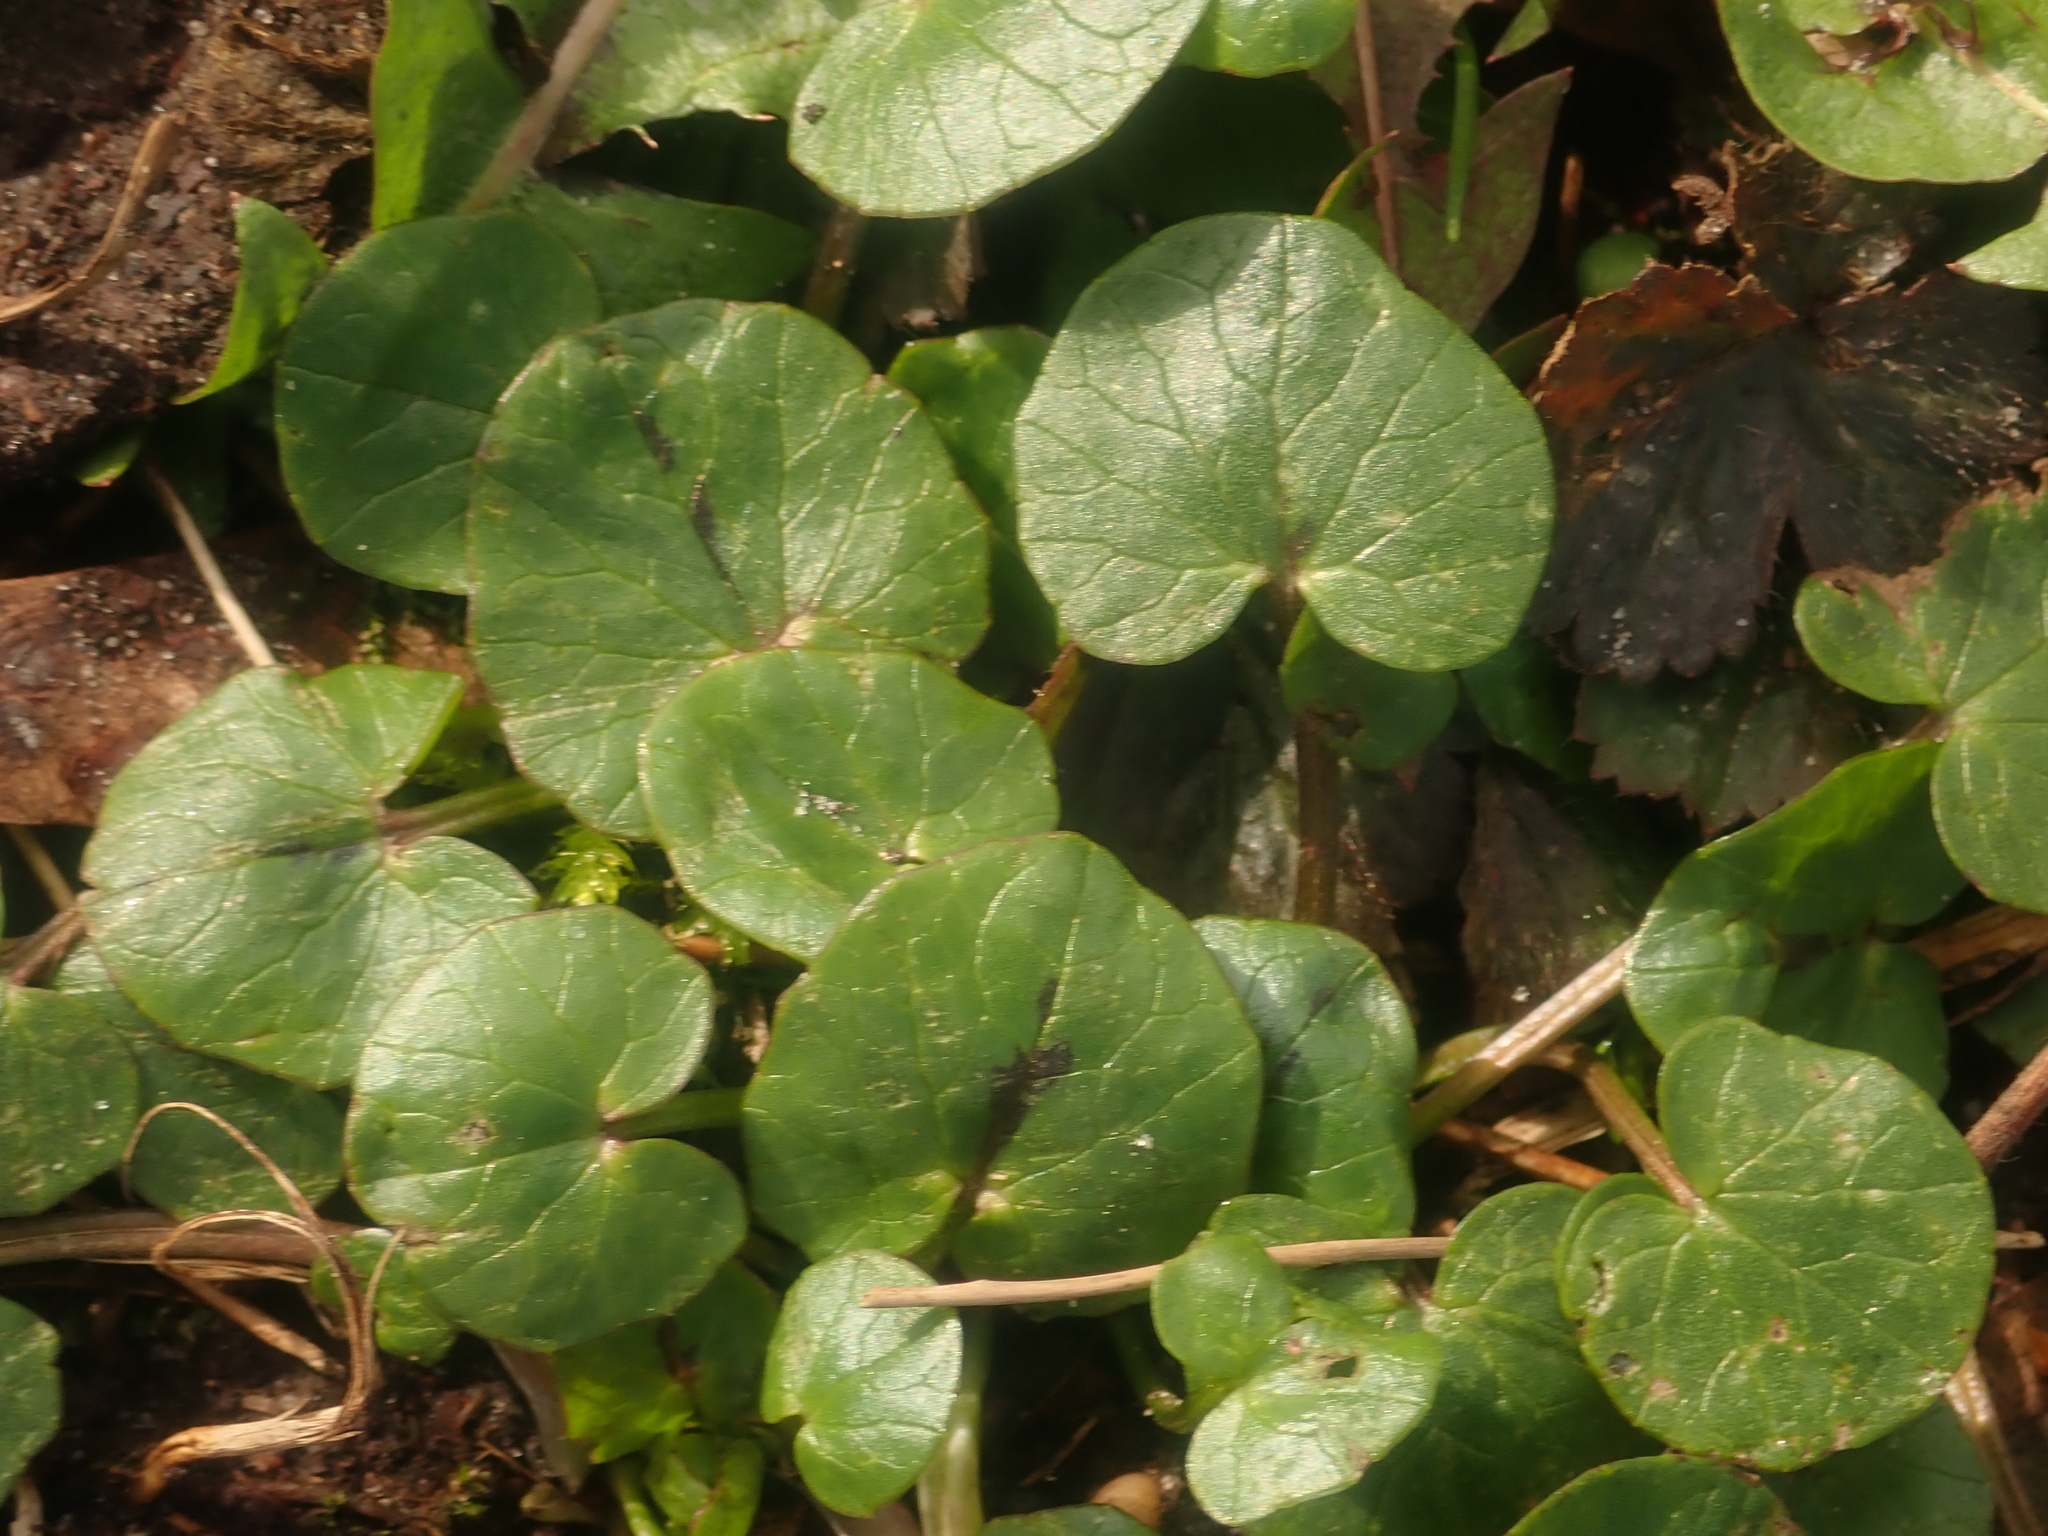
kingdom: Plantae
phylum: Tracheophyta
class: Magnoliopsida
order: Ranunculales
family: Ranunculaceae
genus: Ficaria
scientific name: Ficaria verna
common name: Lesser celandine
